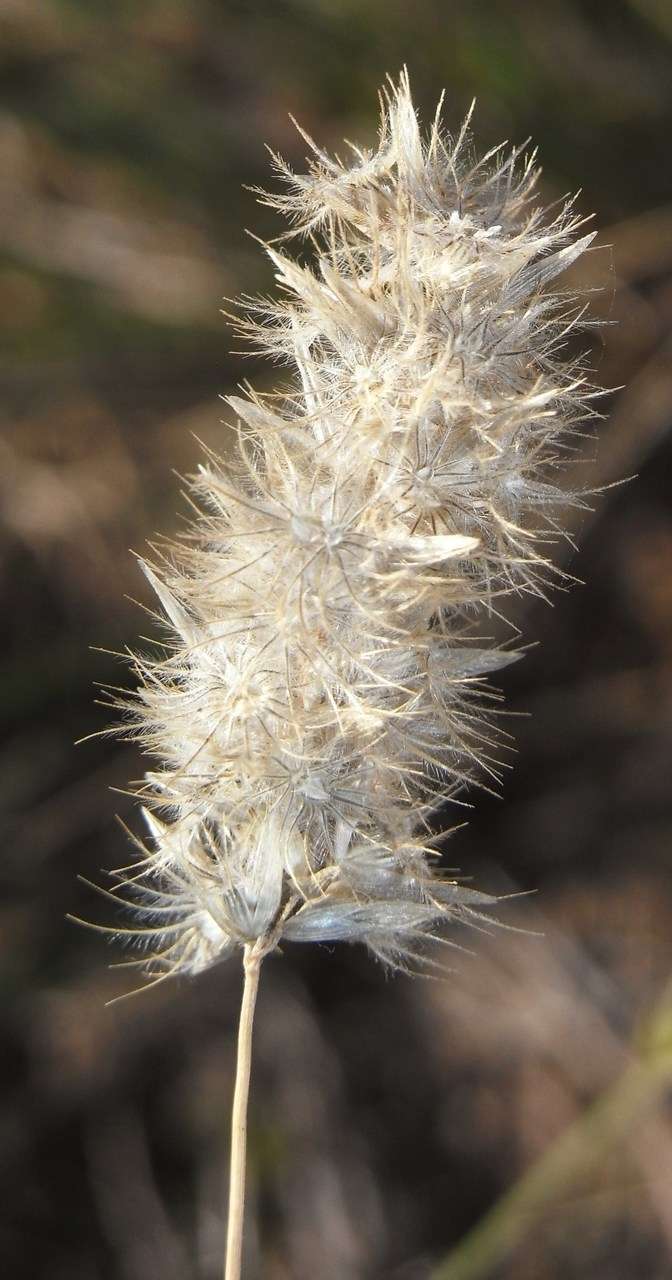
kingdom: Plantae
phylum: Tracheophyta
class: Liliopsida
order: Poales
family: Poaceae
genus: Enneapogon
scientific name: Enneapogon nigricans
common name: Pappus grass
